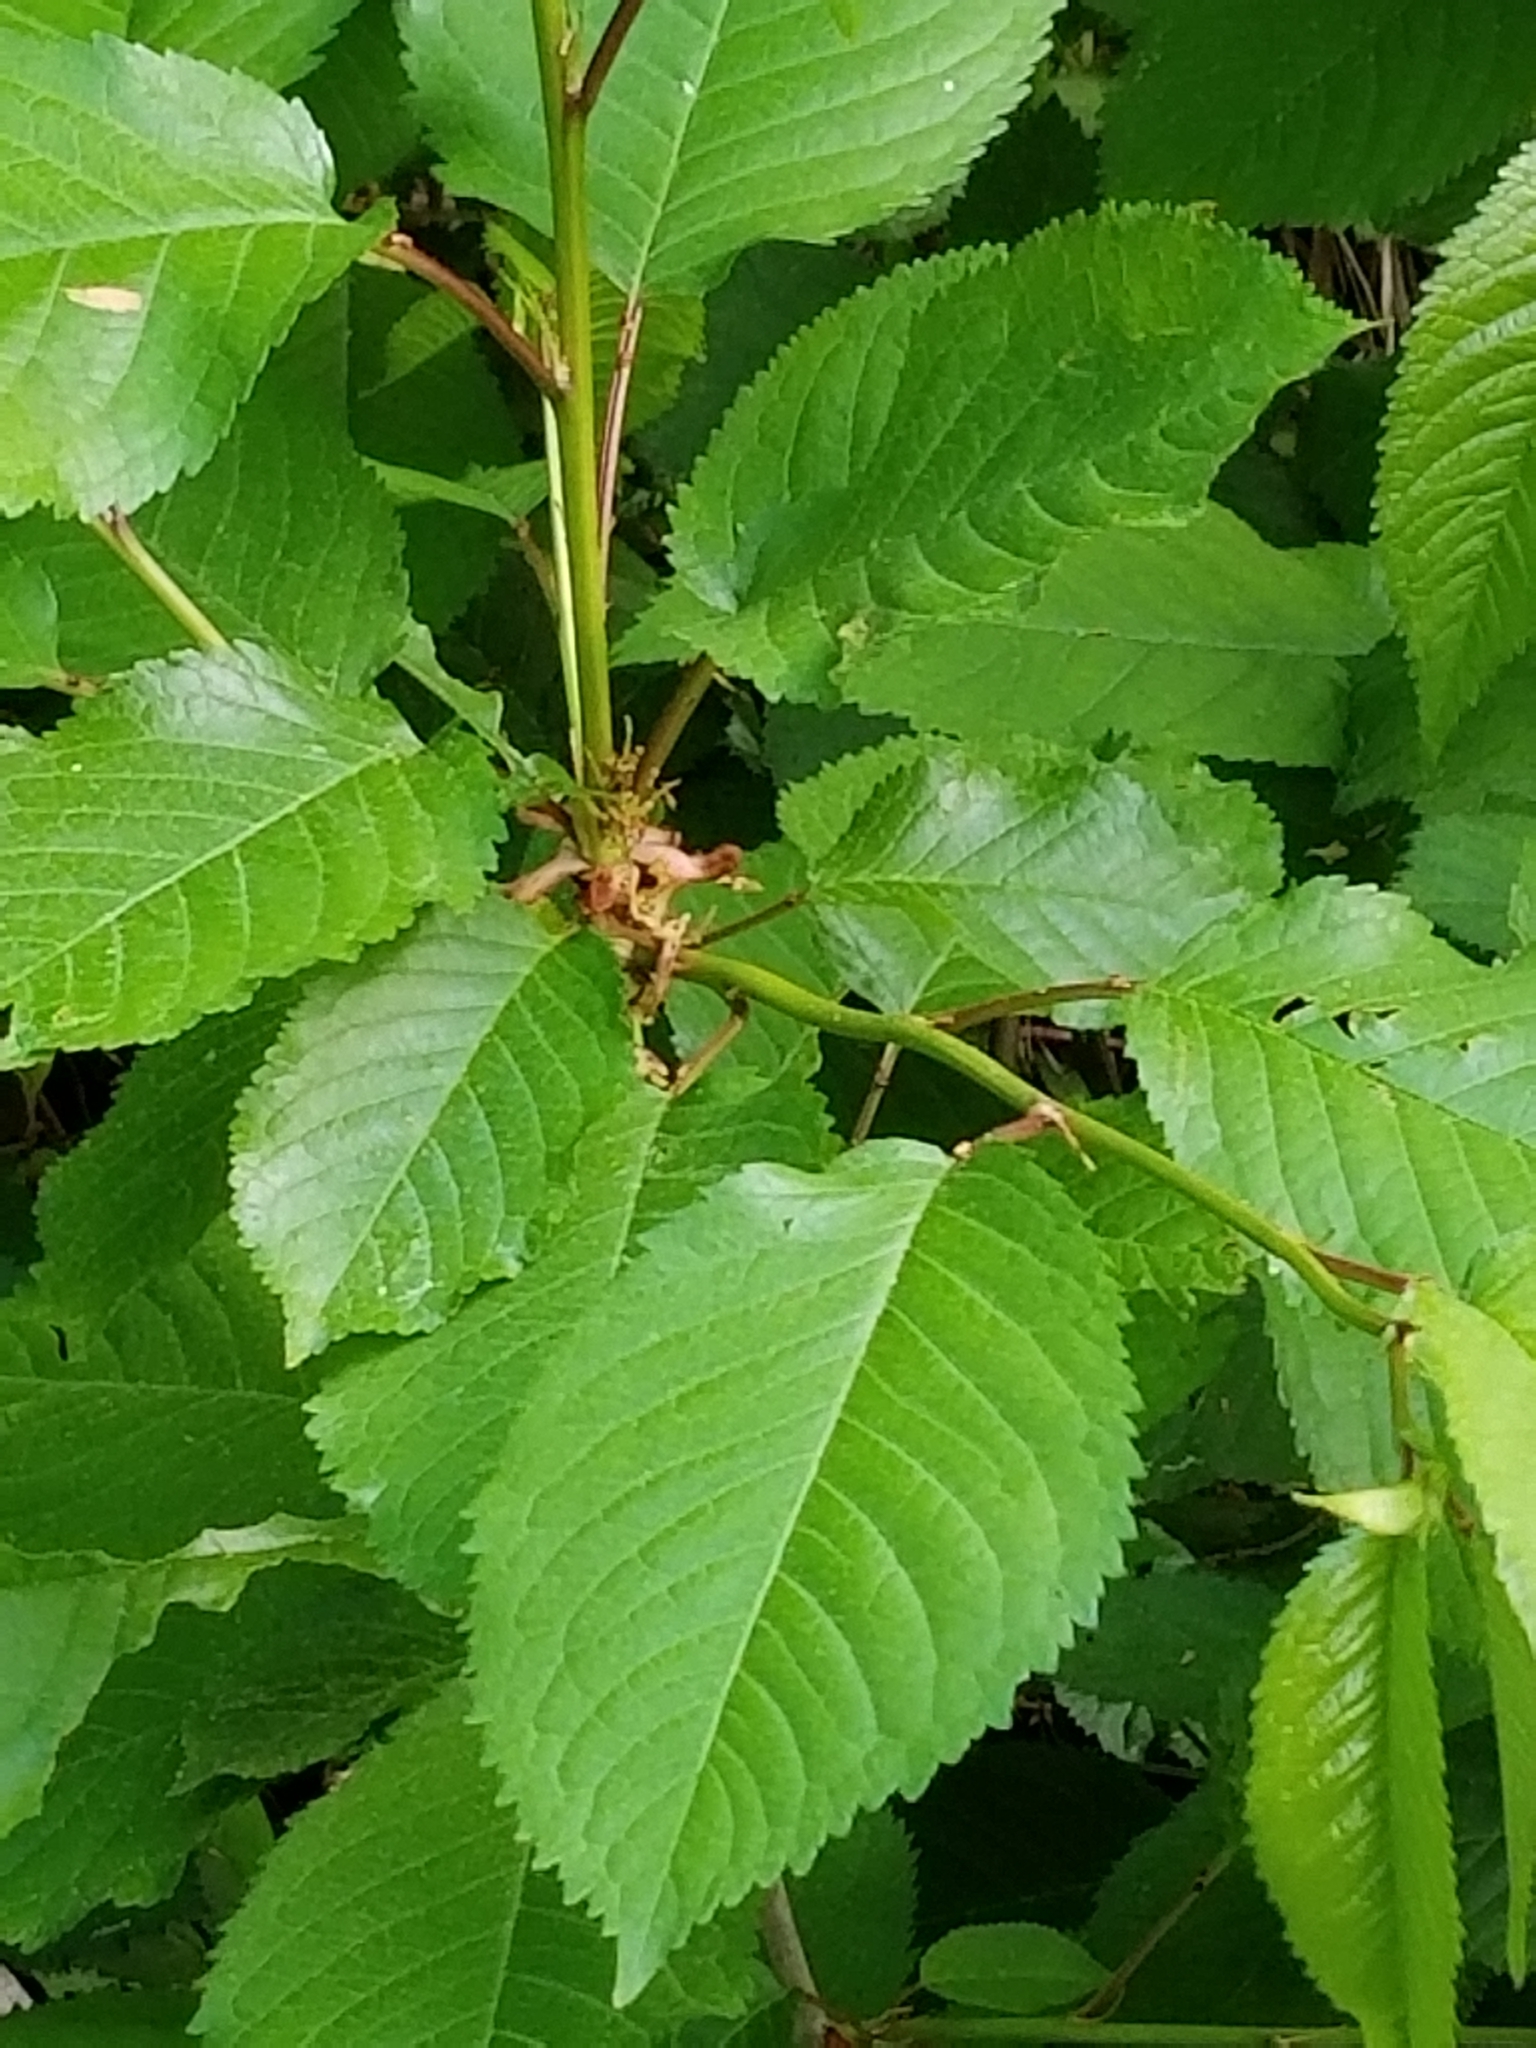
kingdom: Plantae
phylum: Tracheophyta
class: Magnoliopsida
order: Rosales
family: Rosaceae
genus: Prunus
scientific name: Prunus avium
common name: Sweet cherry
